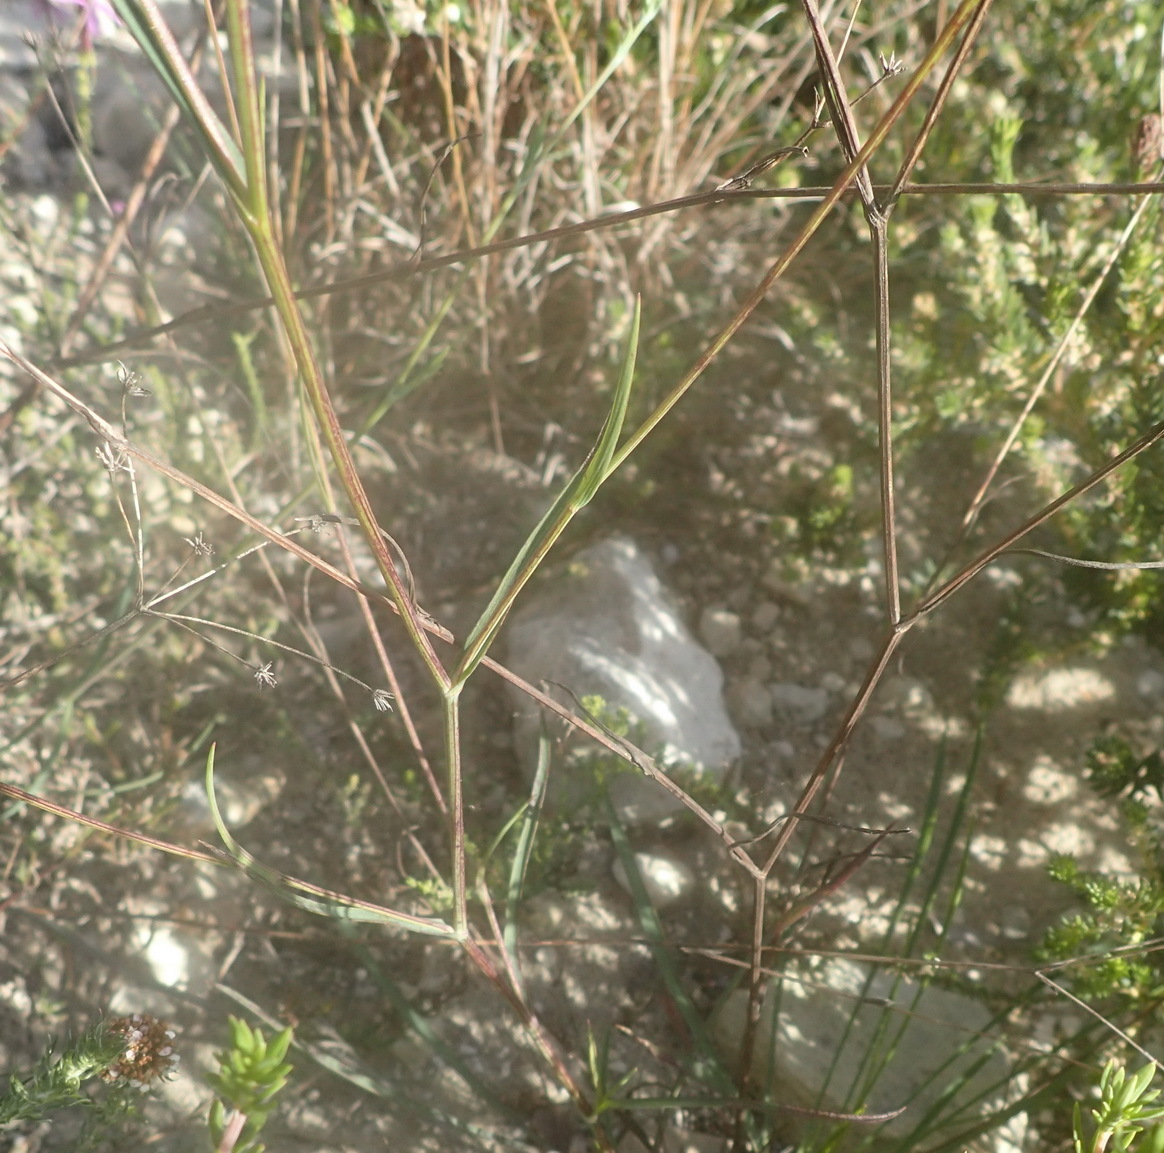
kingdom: Plantae
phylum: Tracheophyta
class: Magnoliopsida
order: Apiales
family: Apiaceae
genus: Bupleurum
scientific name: Bupleurum mundii
